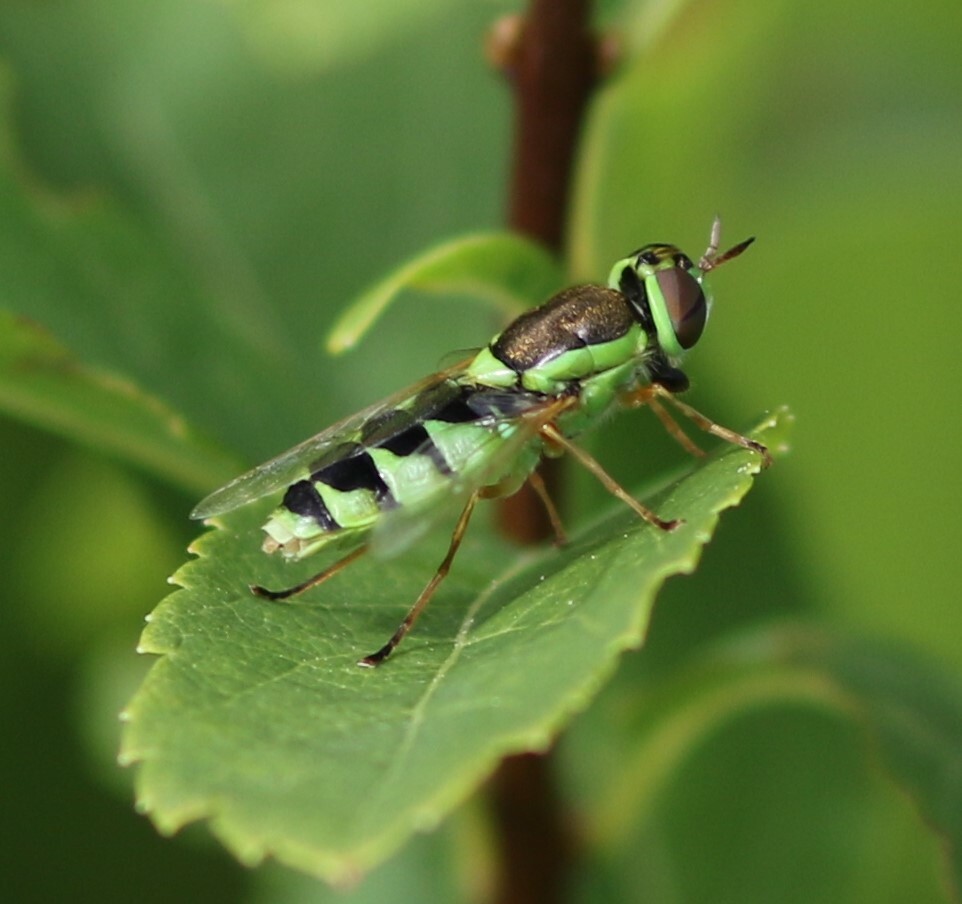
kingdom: Animalia
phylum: Arthropoda
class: Insecta
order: Diptera
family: Stratiomyidae
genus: Odontomyia
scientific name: Odontomyia cincta
